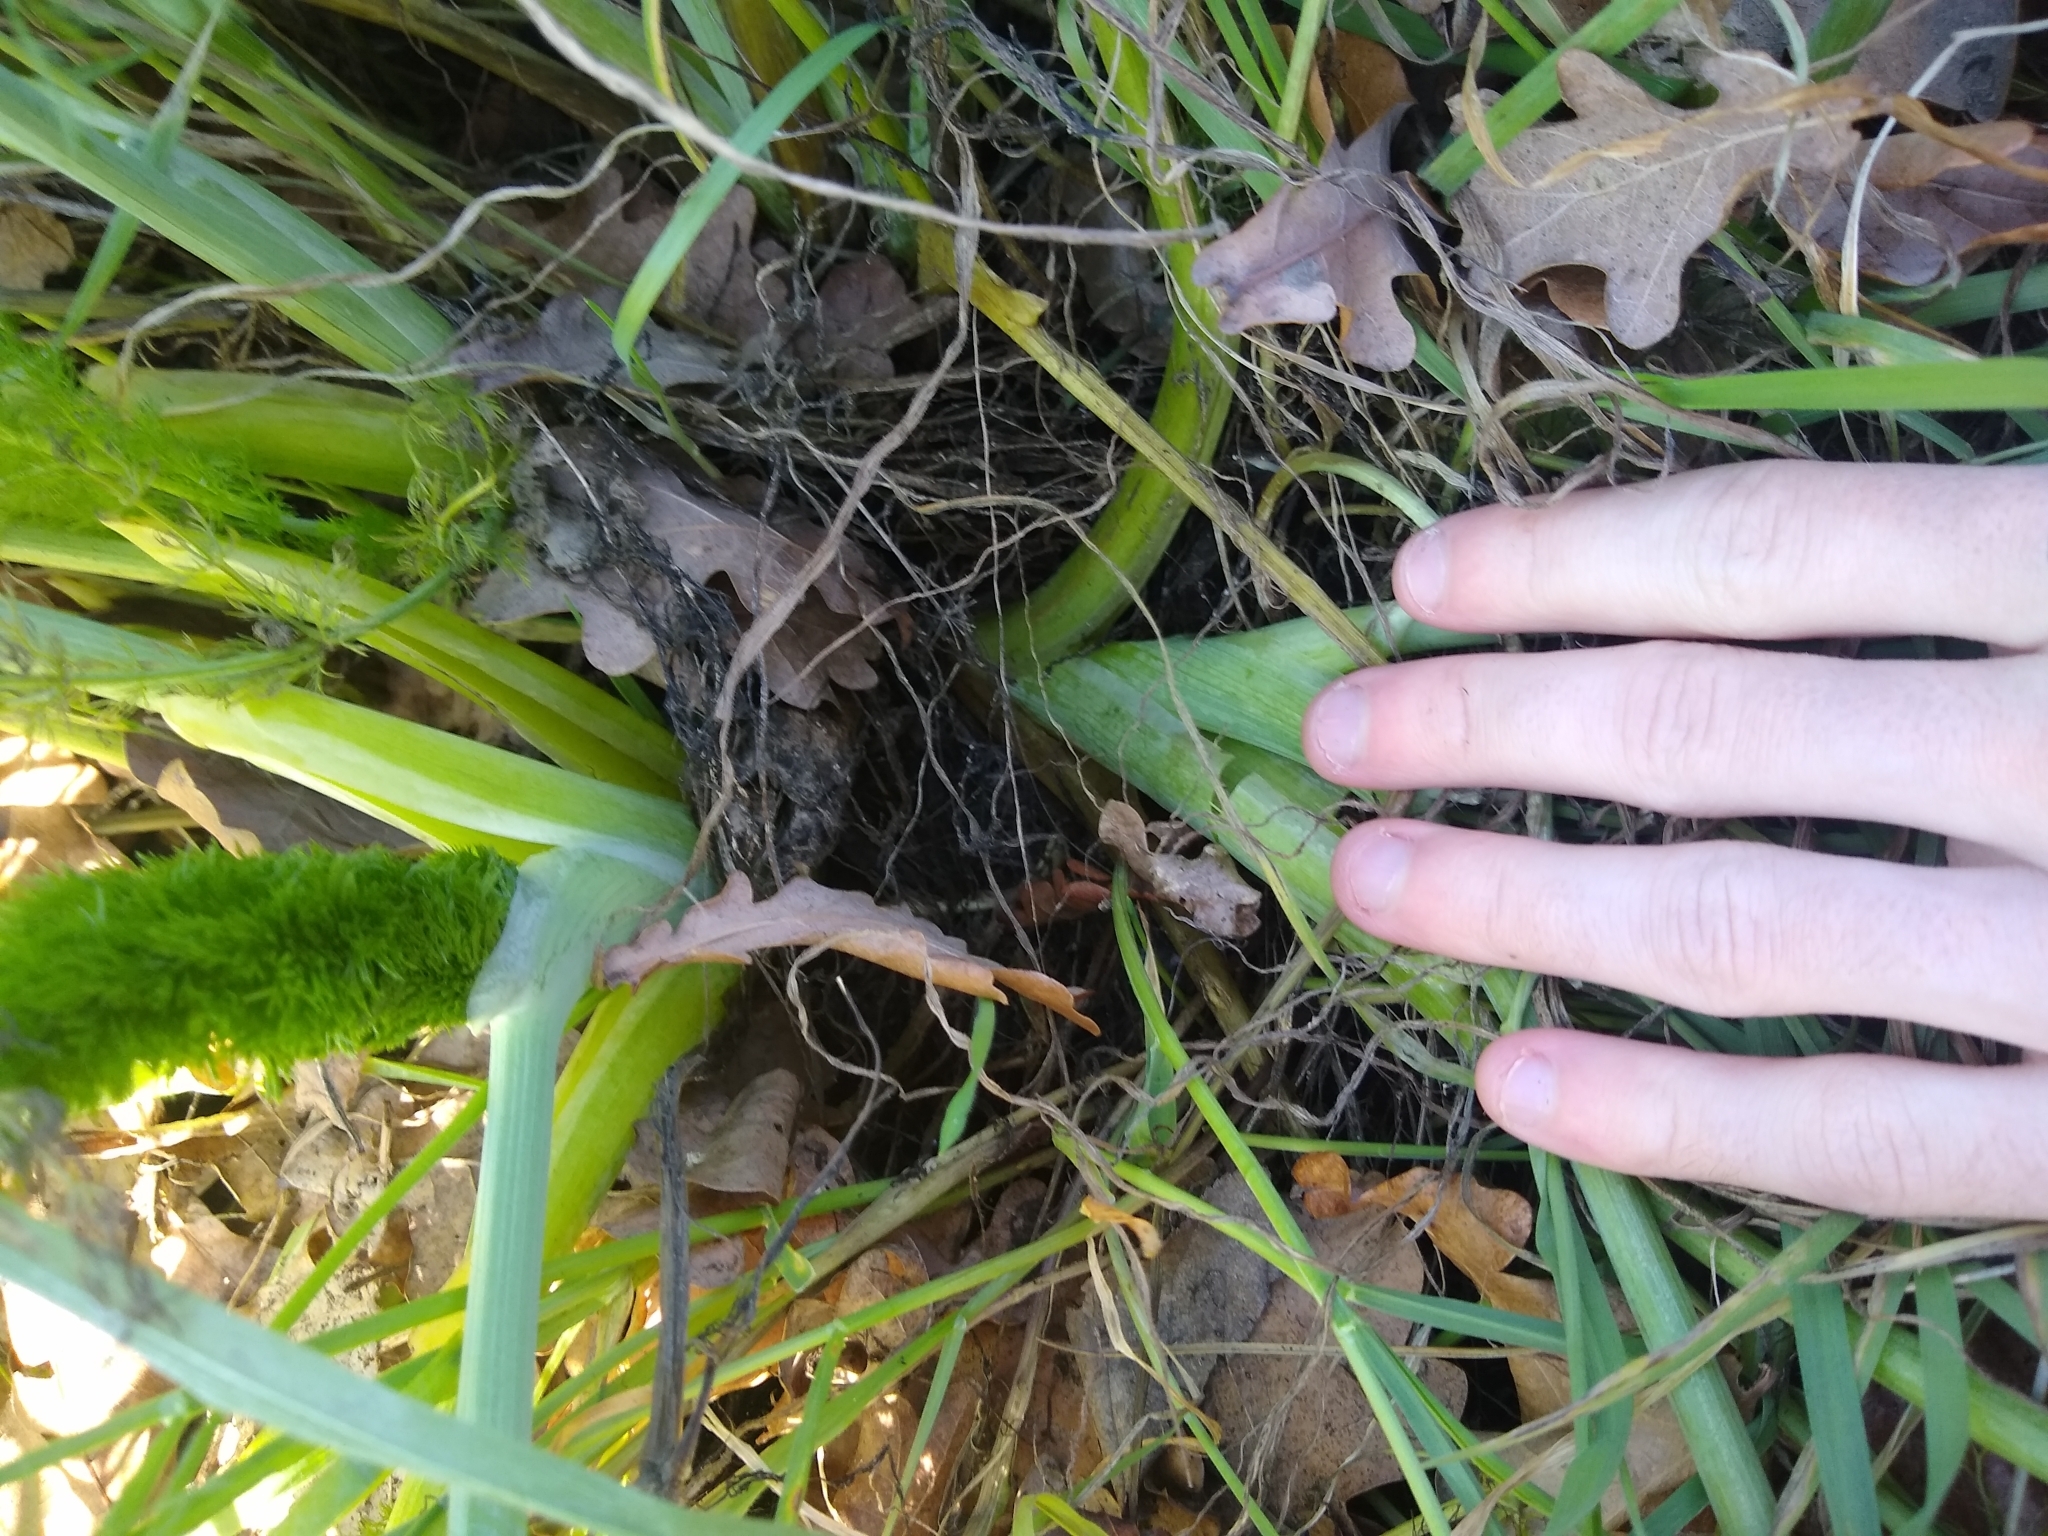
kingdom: Plantae
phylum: Tracheophyta
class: Magnoliopsida
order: Apiales
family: Apiaceae
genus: Foeniculum
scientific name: Foeniculum vulgare
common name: Fennel
